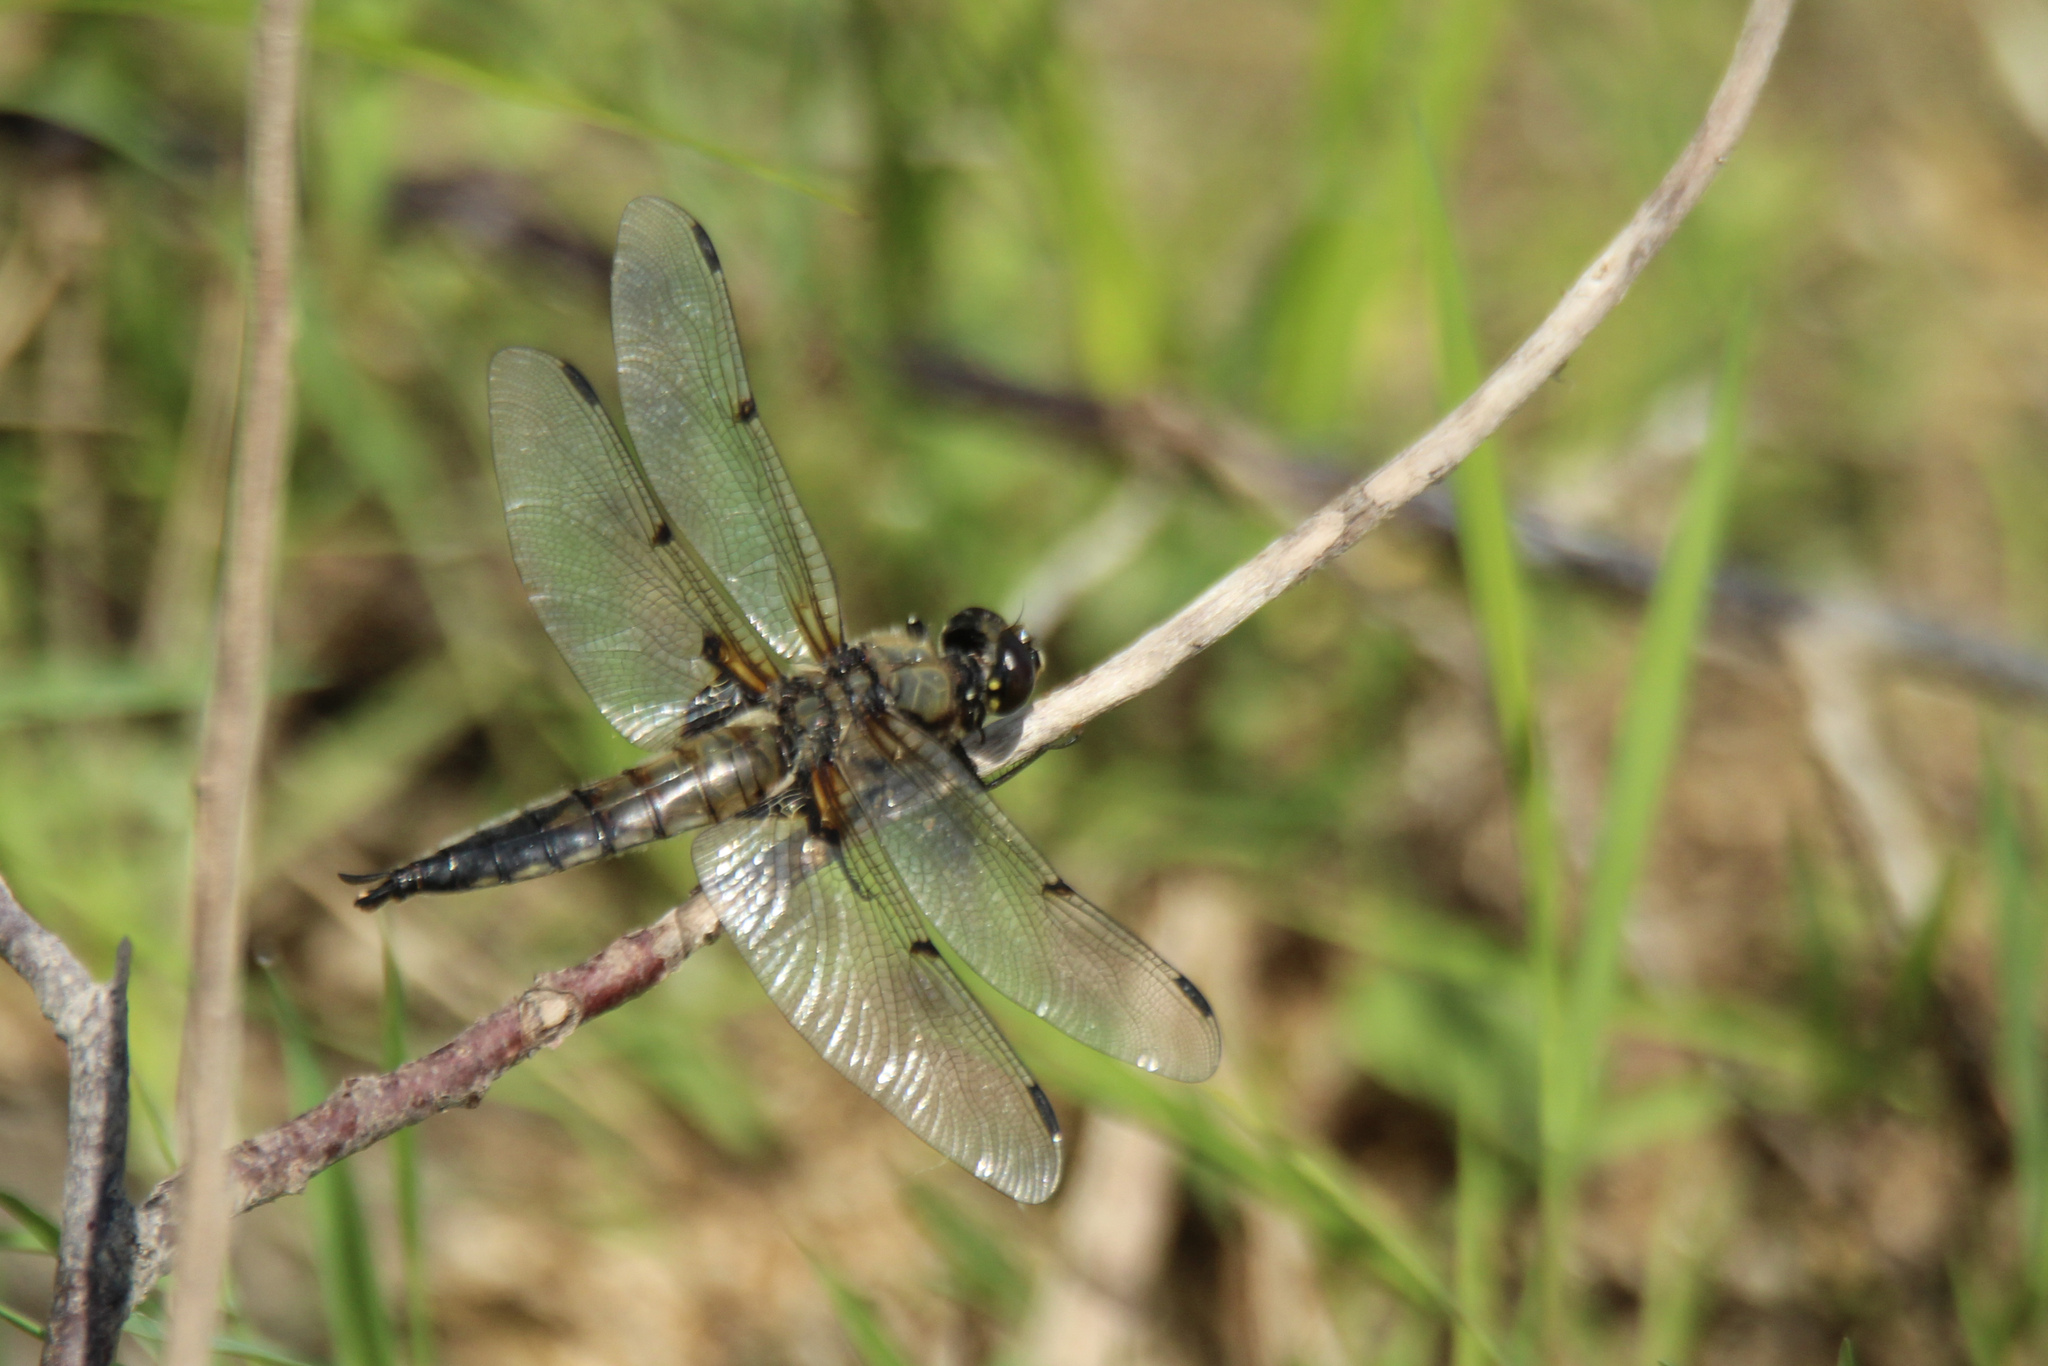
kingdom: Animalia
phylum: Arthropoda
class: Insecta
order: Odonata
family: Libellulidae
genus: Libellula
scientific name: Libellula quadrimaculata
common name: Four-spotted chaser
